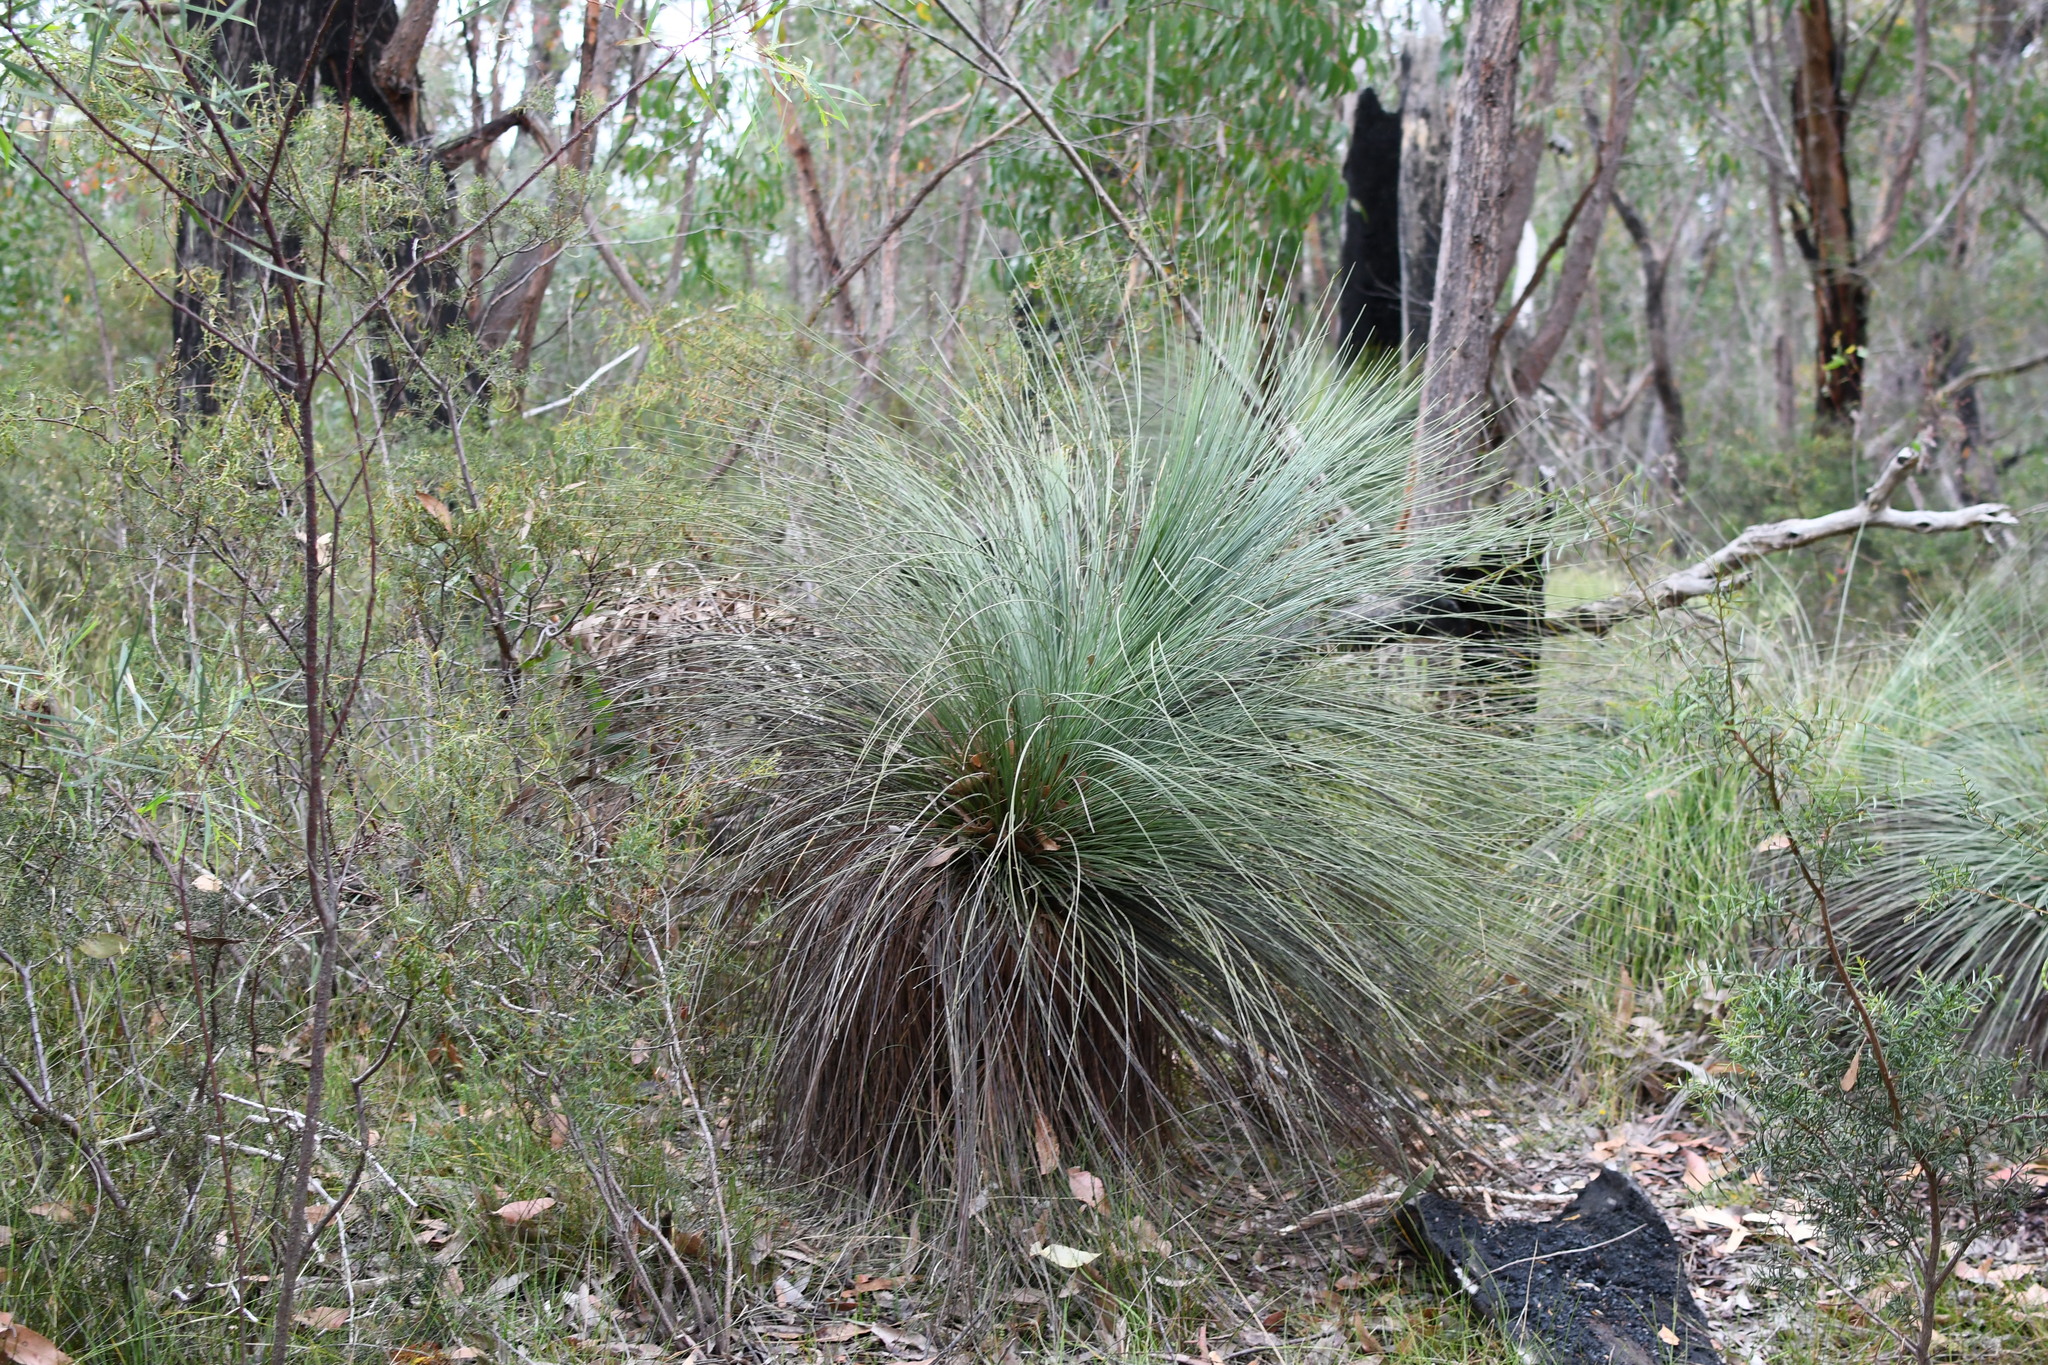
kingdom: Plantae
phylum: Tracheophyta
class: Liliopsida
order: Asparagales
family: Asphodelaceae
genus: Xanthorrhoea
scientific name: Xanthorrhoea australis
